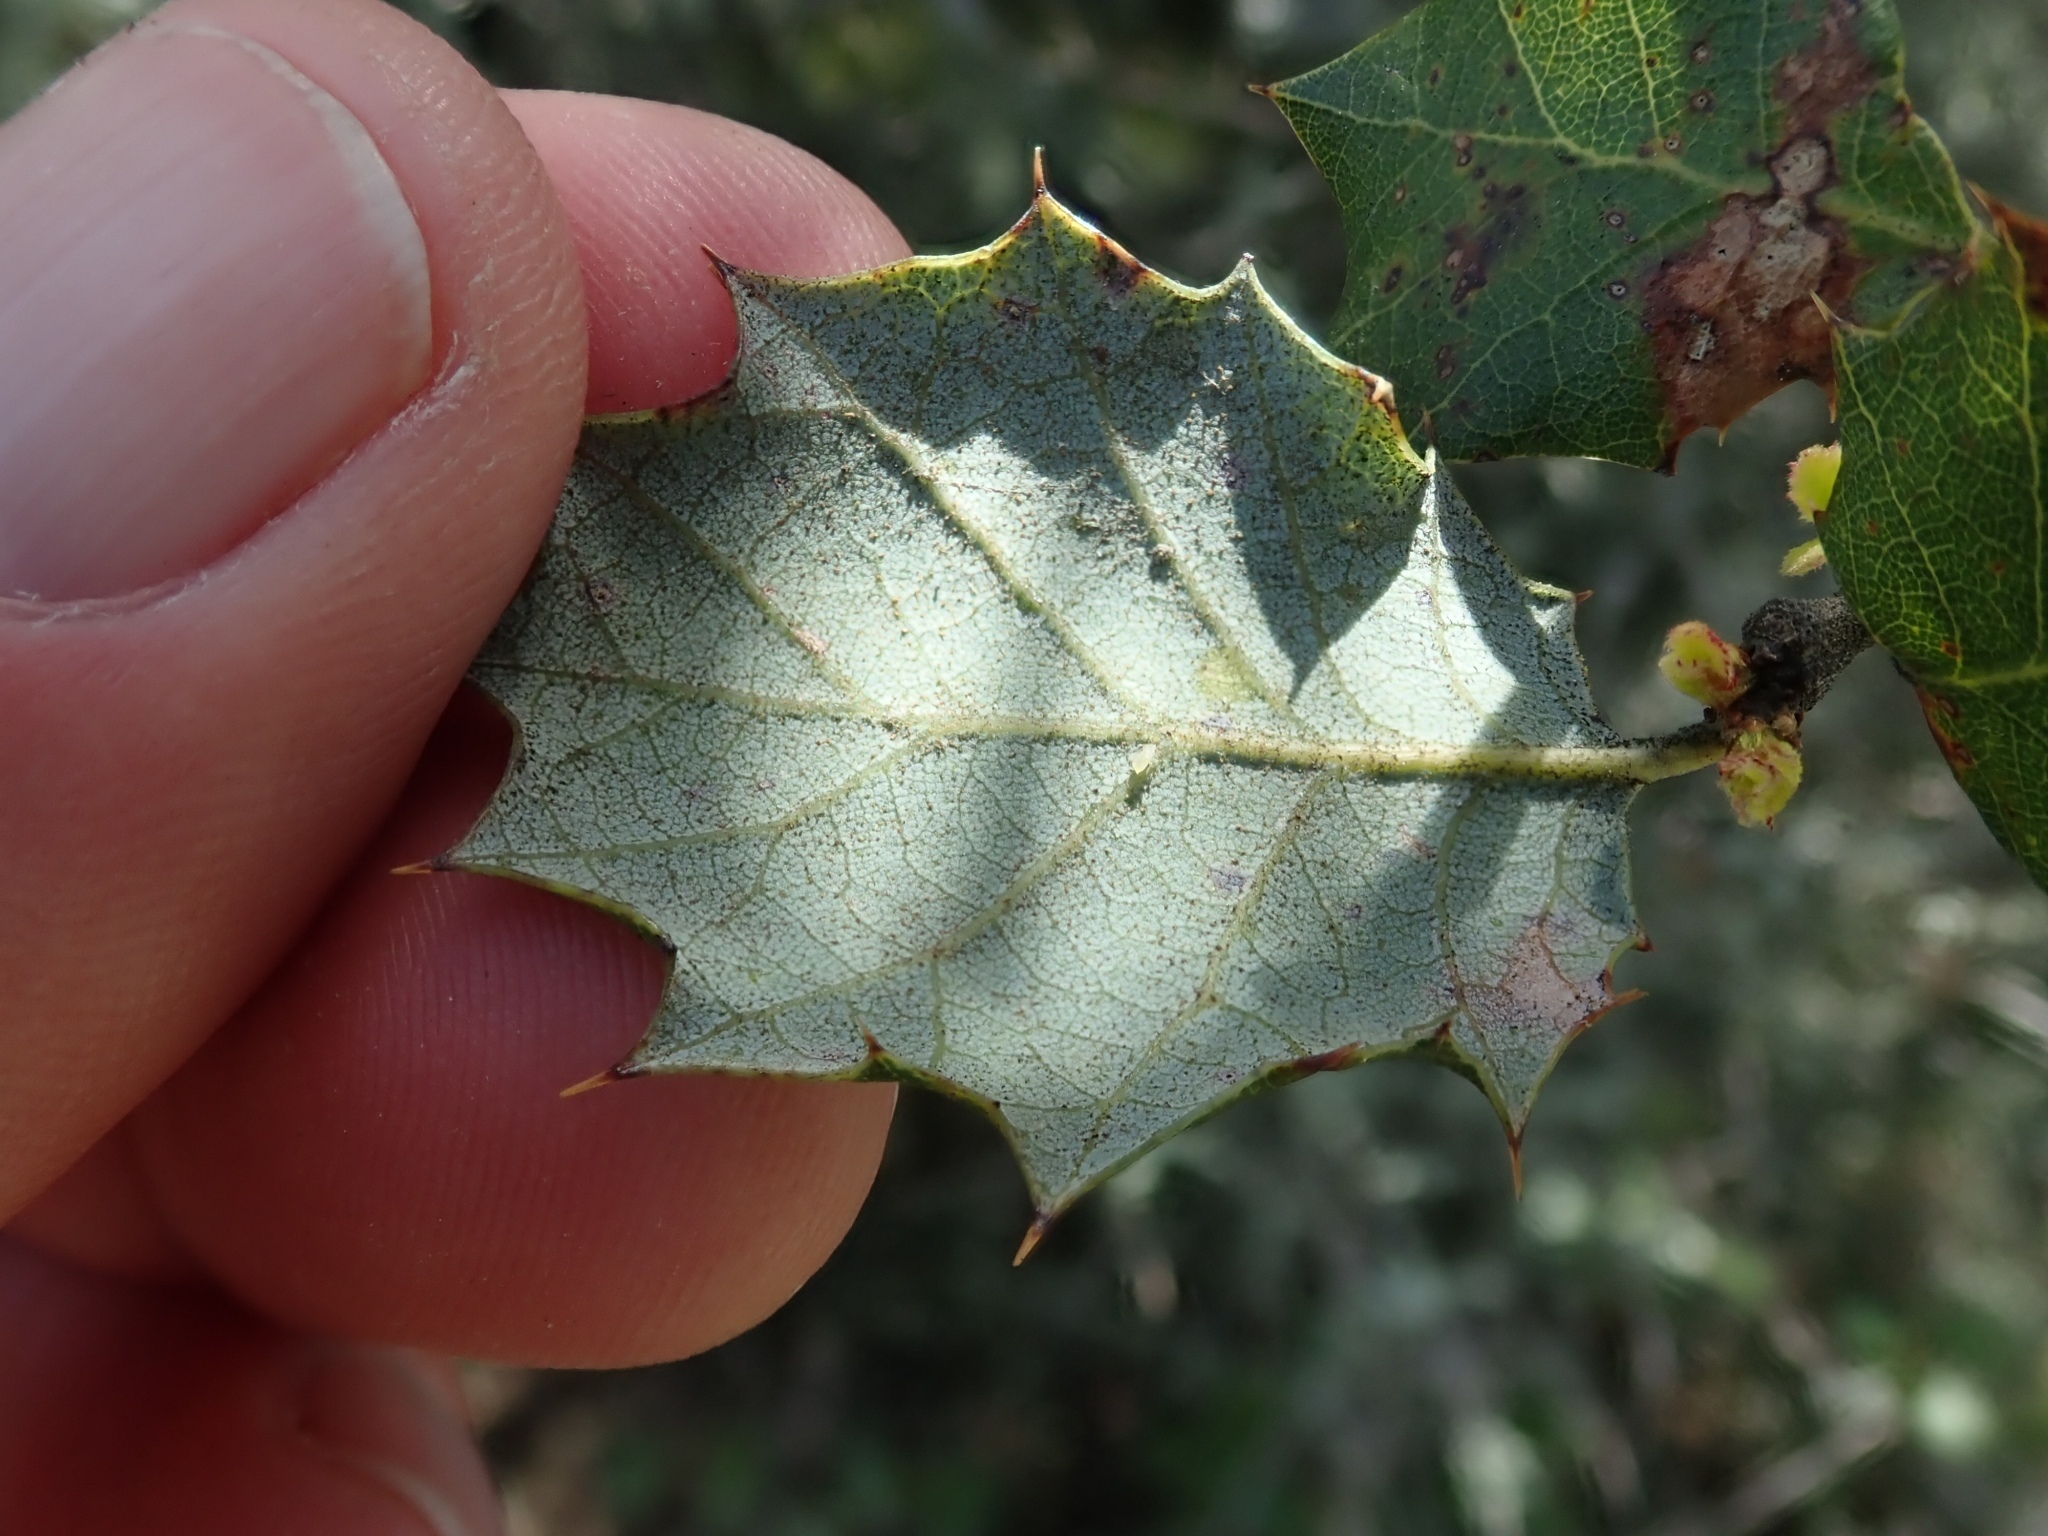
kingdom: Plantae
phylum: Tracheophyta
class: Magnoliopsida
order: Fagales
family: Fagaceae
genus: Quercus
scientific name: Quercus palmeri
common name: Dunn oak
